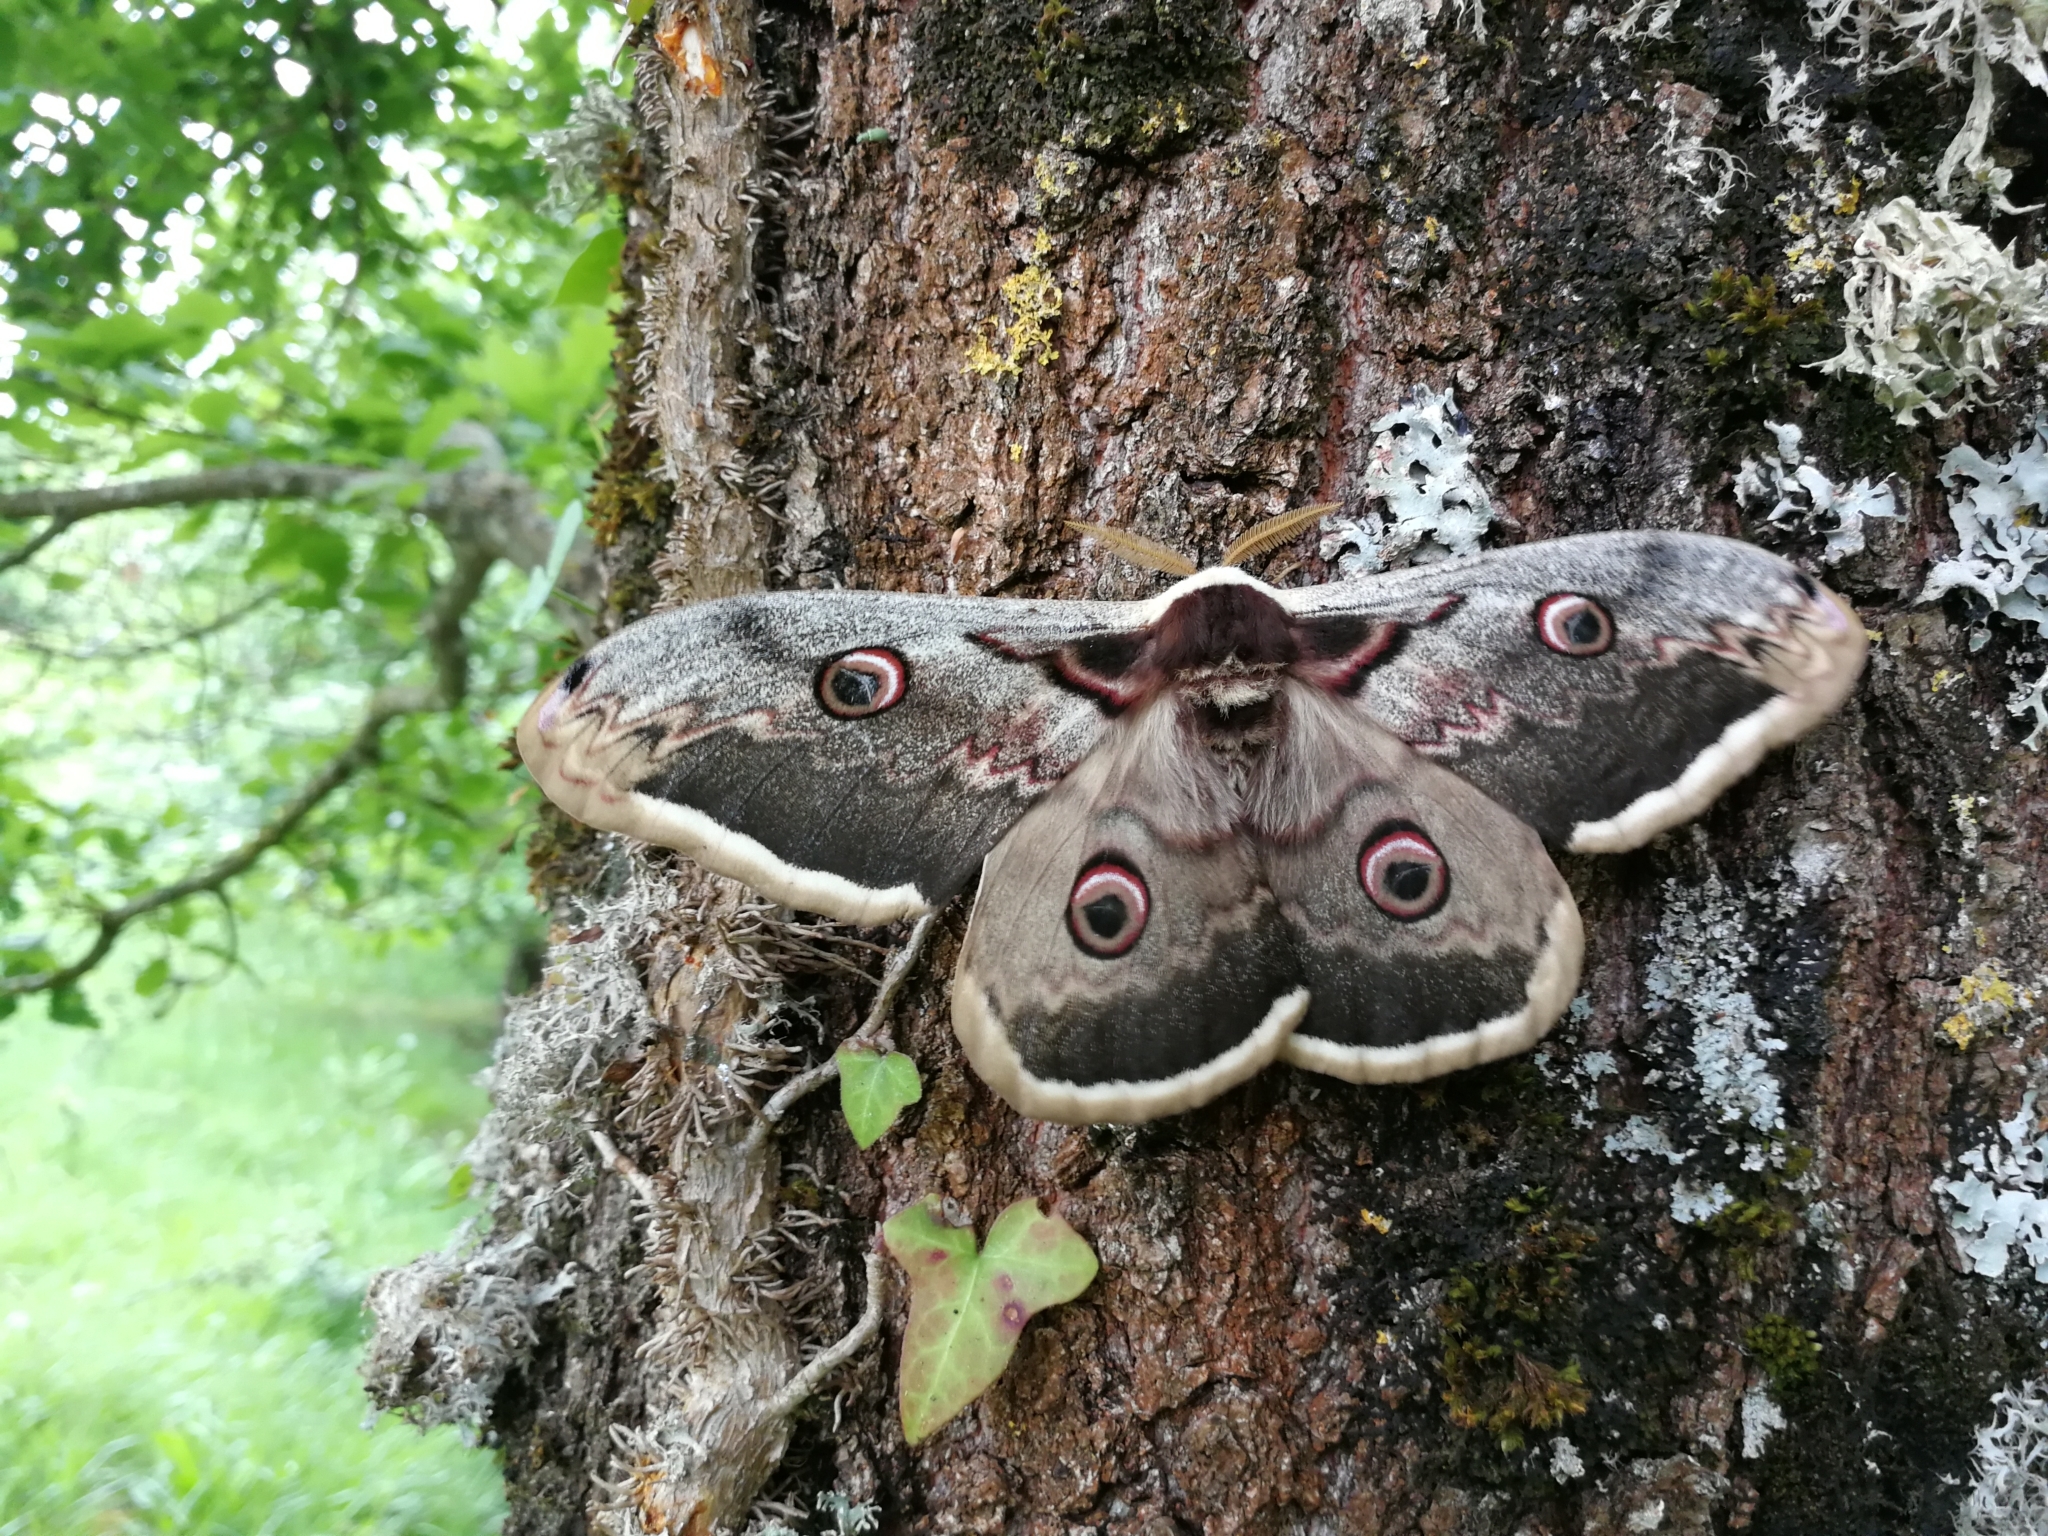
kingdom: Animalia
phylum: Arthropoda
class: Insecta
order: Lepidoptera
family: Saturniidae
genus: Saturnia
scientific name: Saturnia pyri
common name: Great peacock moth
